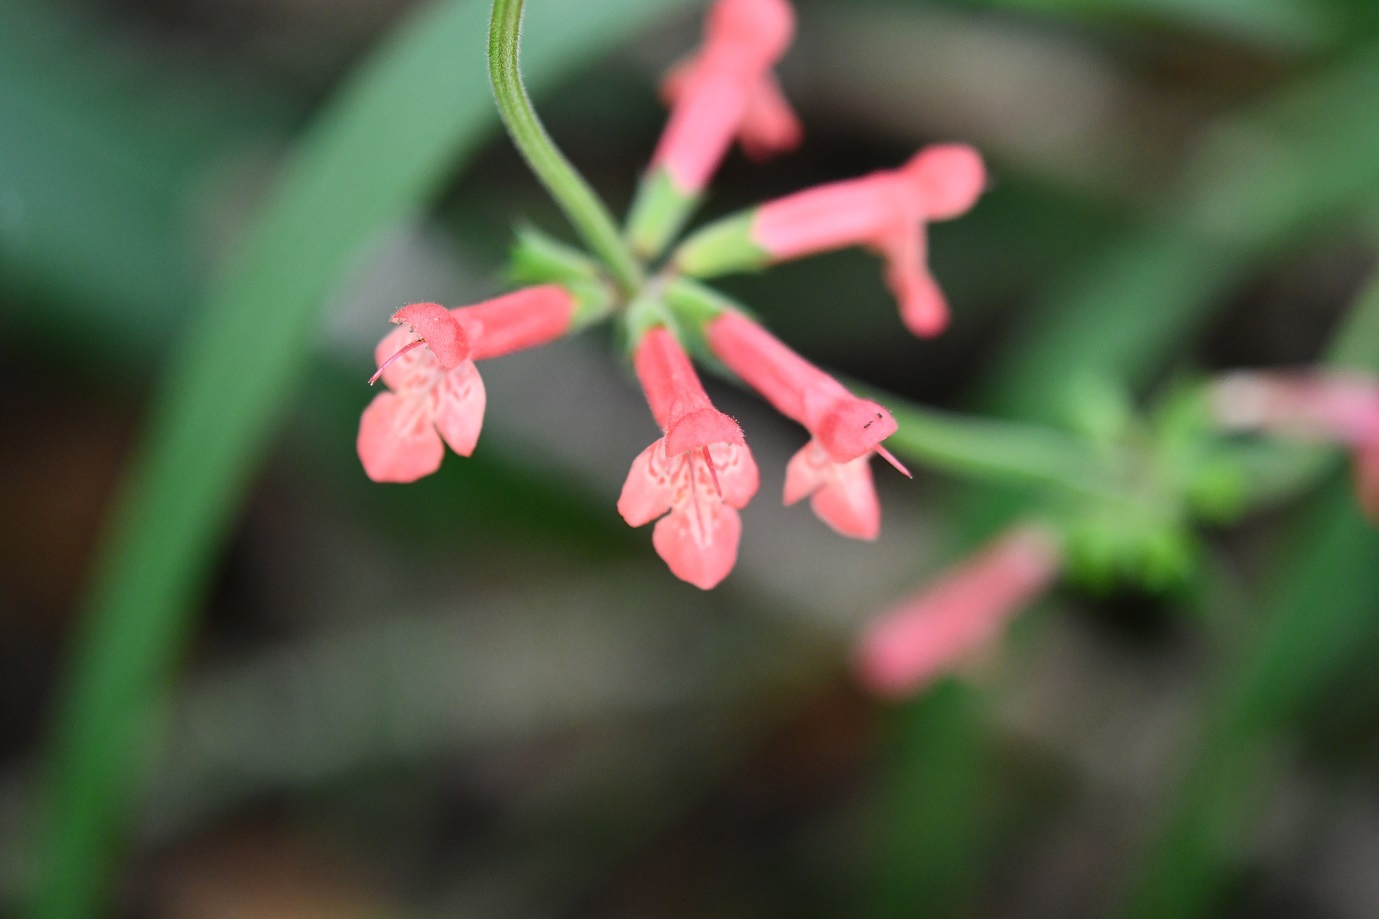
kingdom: Plantae
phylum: Tracheophyta
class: Magnoliopsida
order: Lamiales
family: Lamiaceae
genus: Stachys
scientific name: Stachys coccinea
